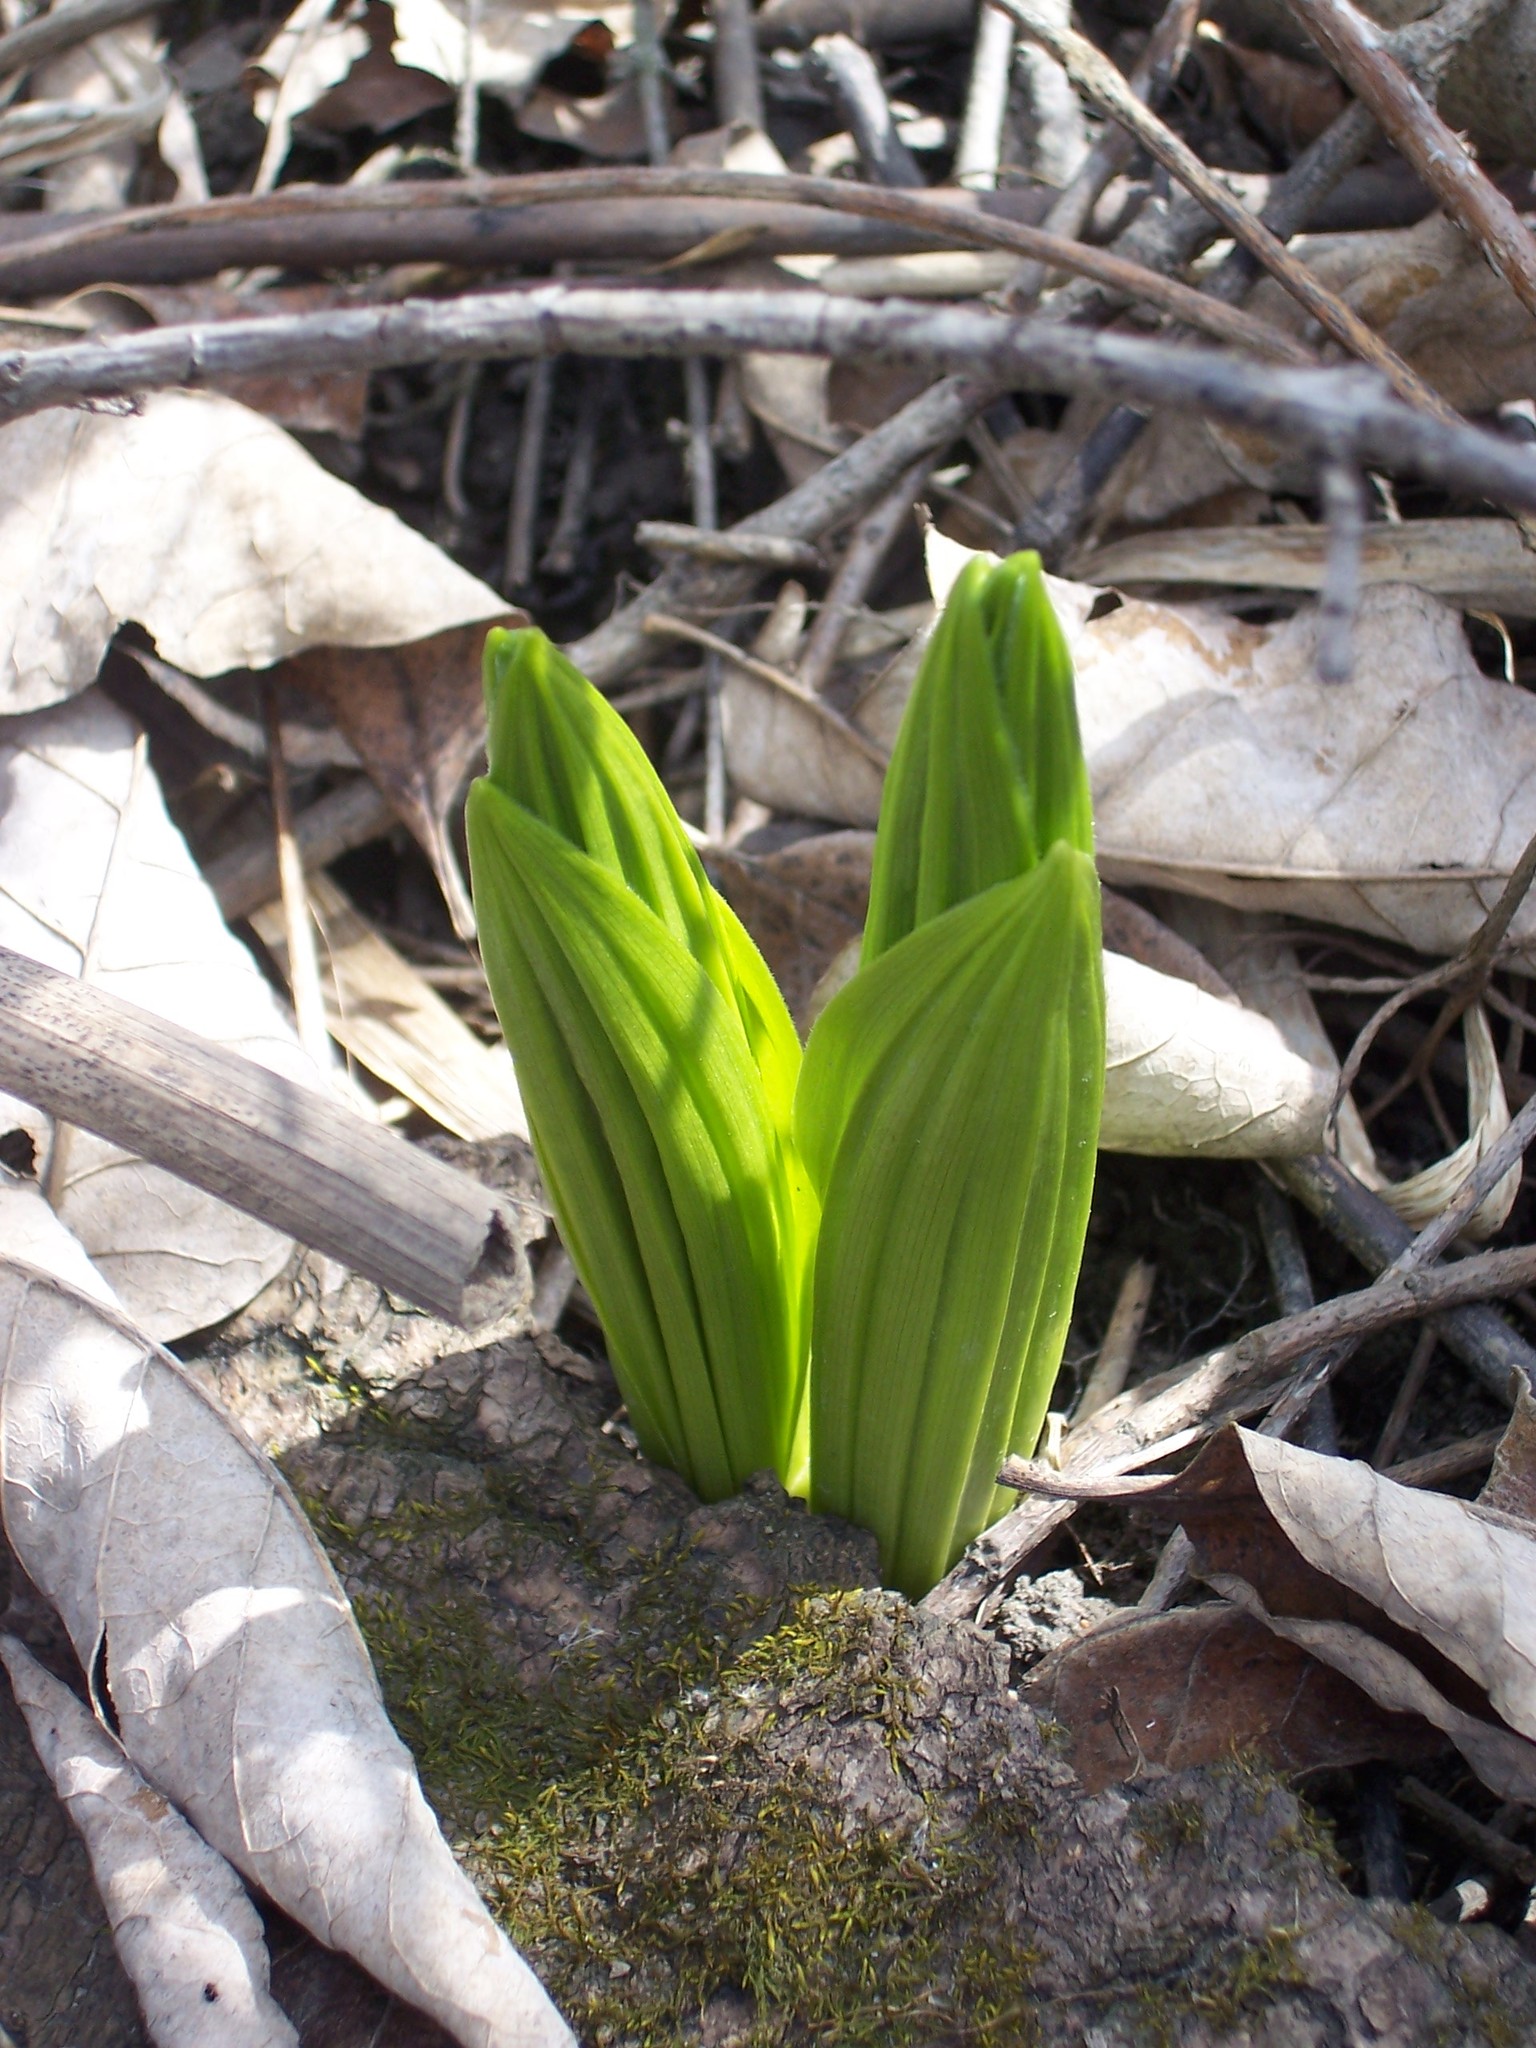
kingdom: Plantae
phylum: Tracheophyta
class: Liliopsida
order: Liliales
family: Melanthiaceae
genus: Veratrum
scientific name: Veratrum viride
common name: American false hellebore
